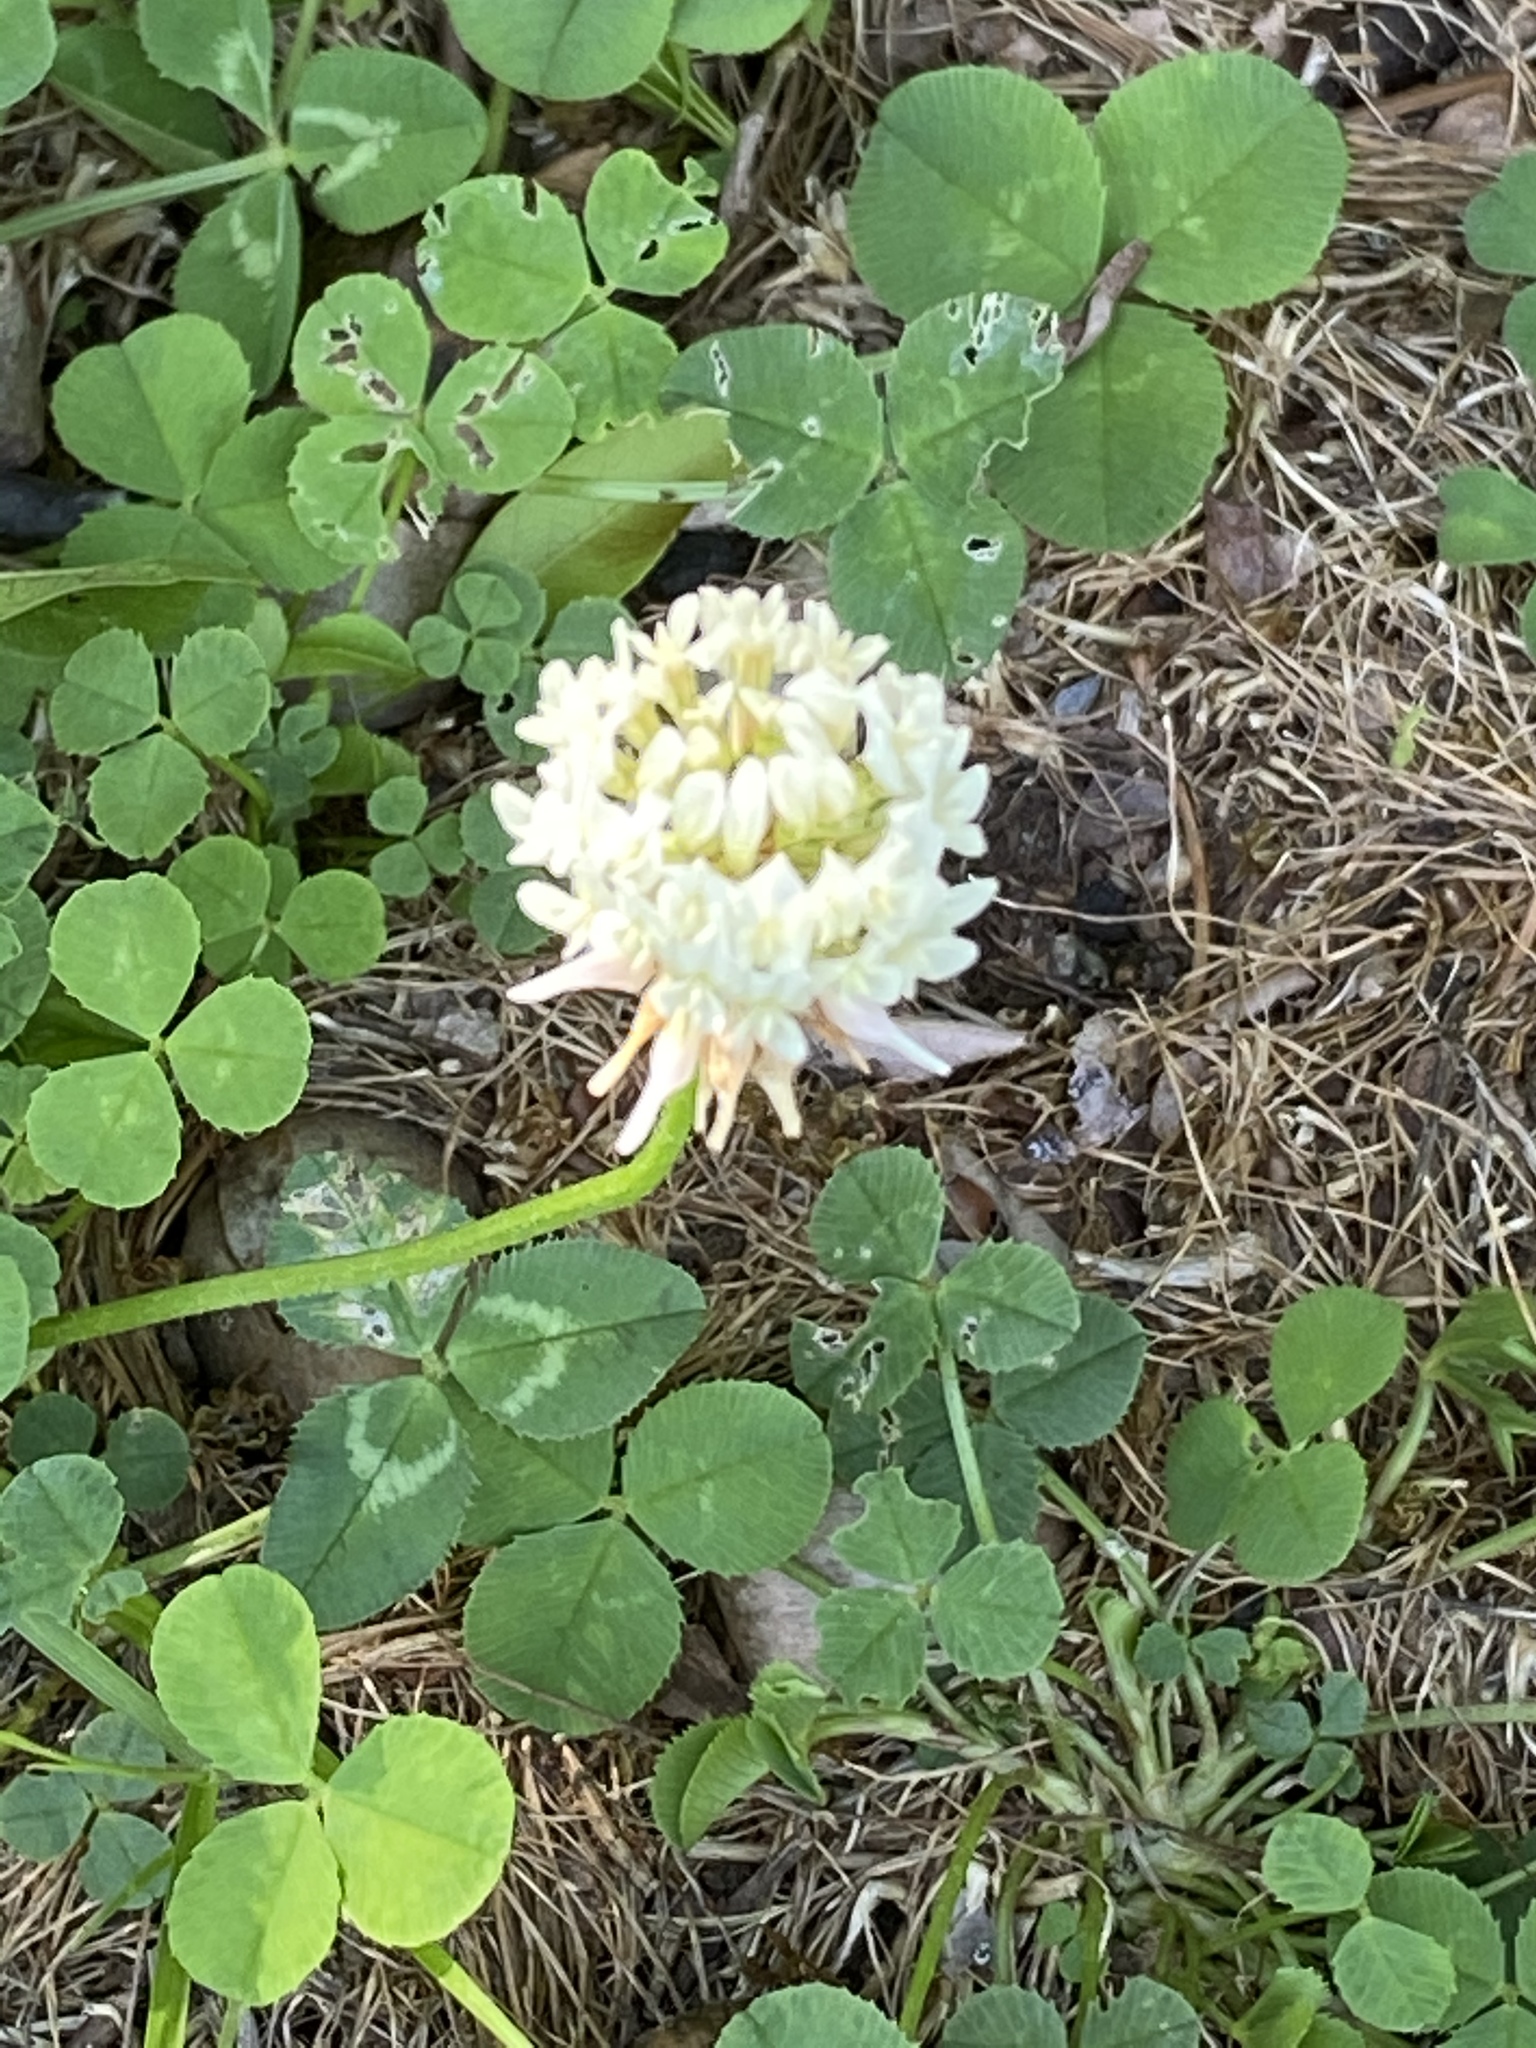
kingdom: Plantae
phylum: Tracheophyta
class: Magnoliopsida
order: Fabales
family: Fabaceae
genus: Trifolium
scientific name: Trifolium repens
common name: White clover
